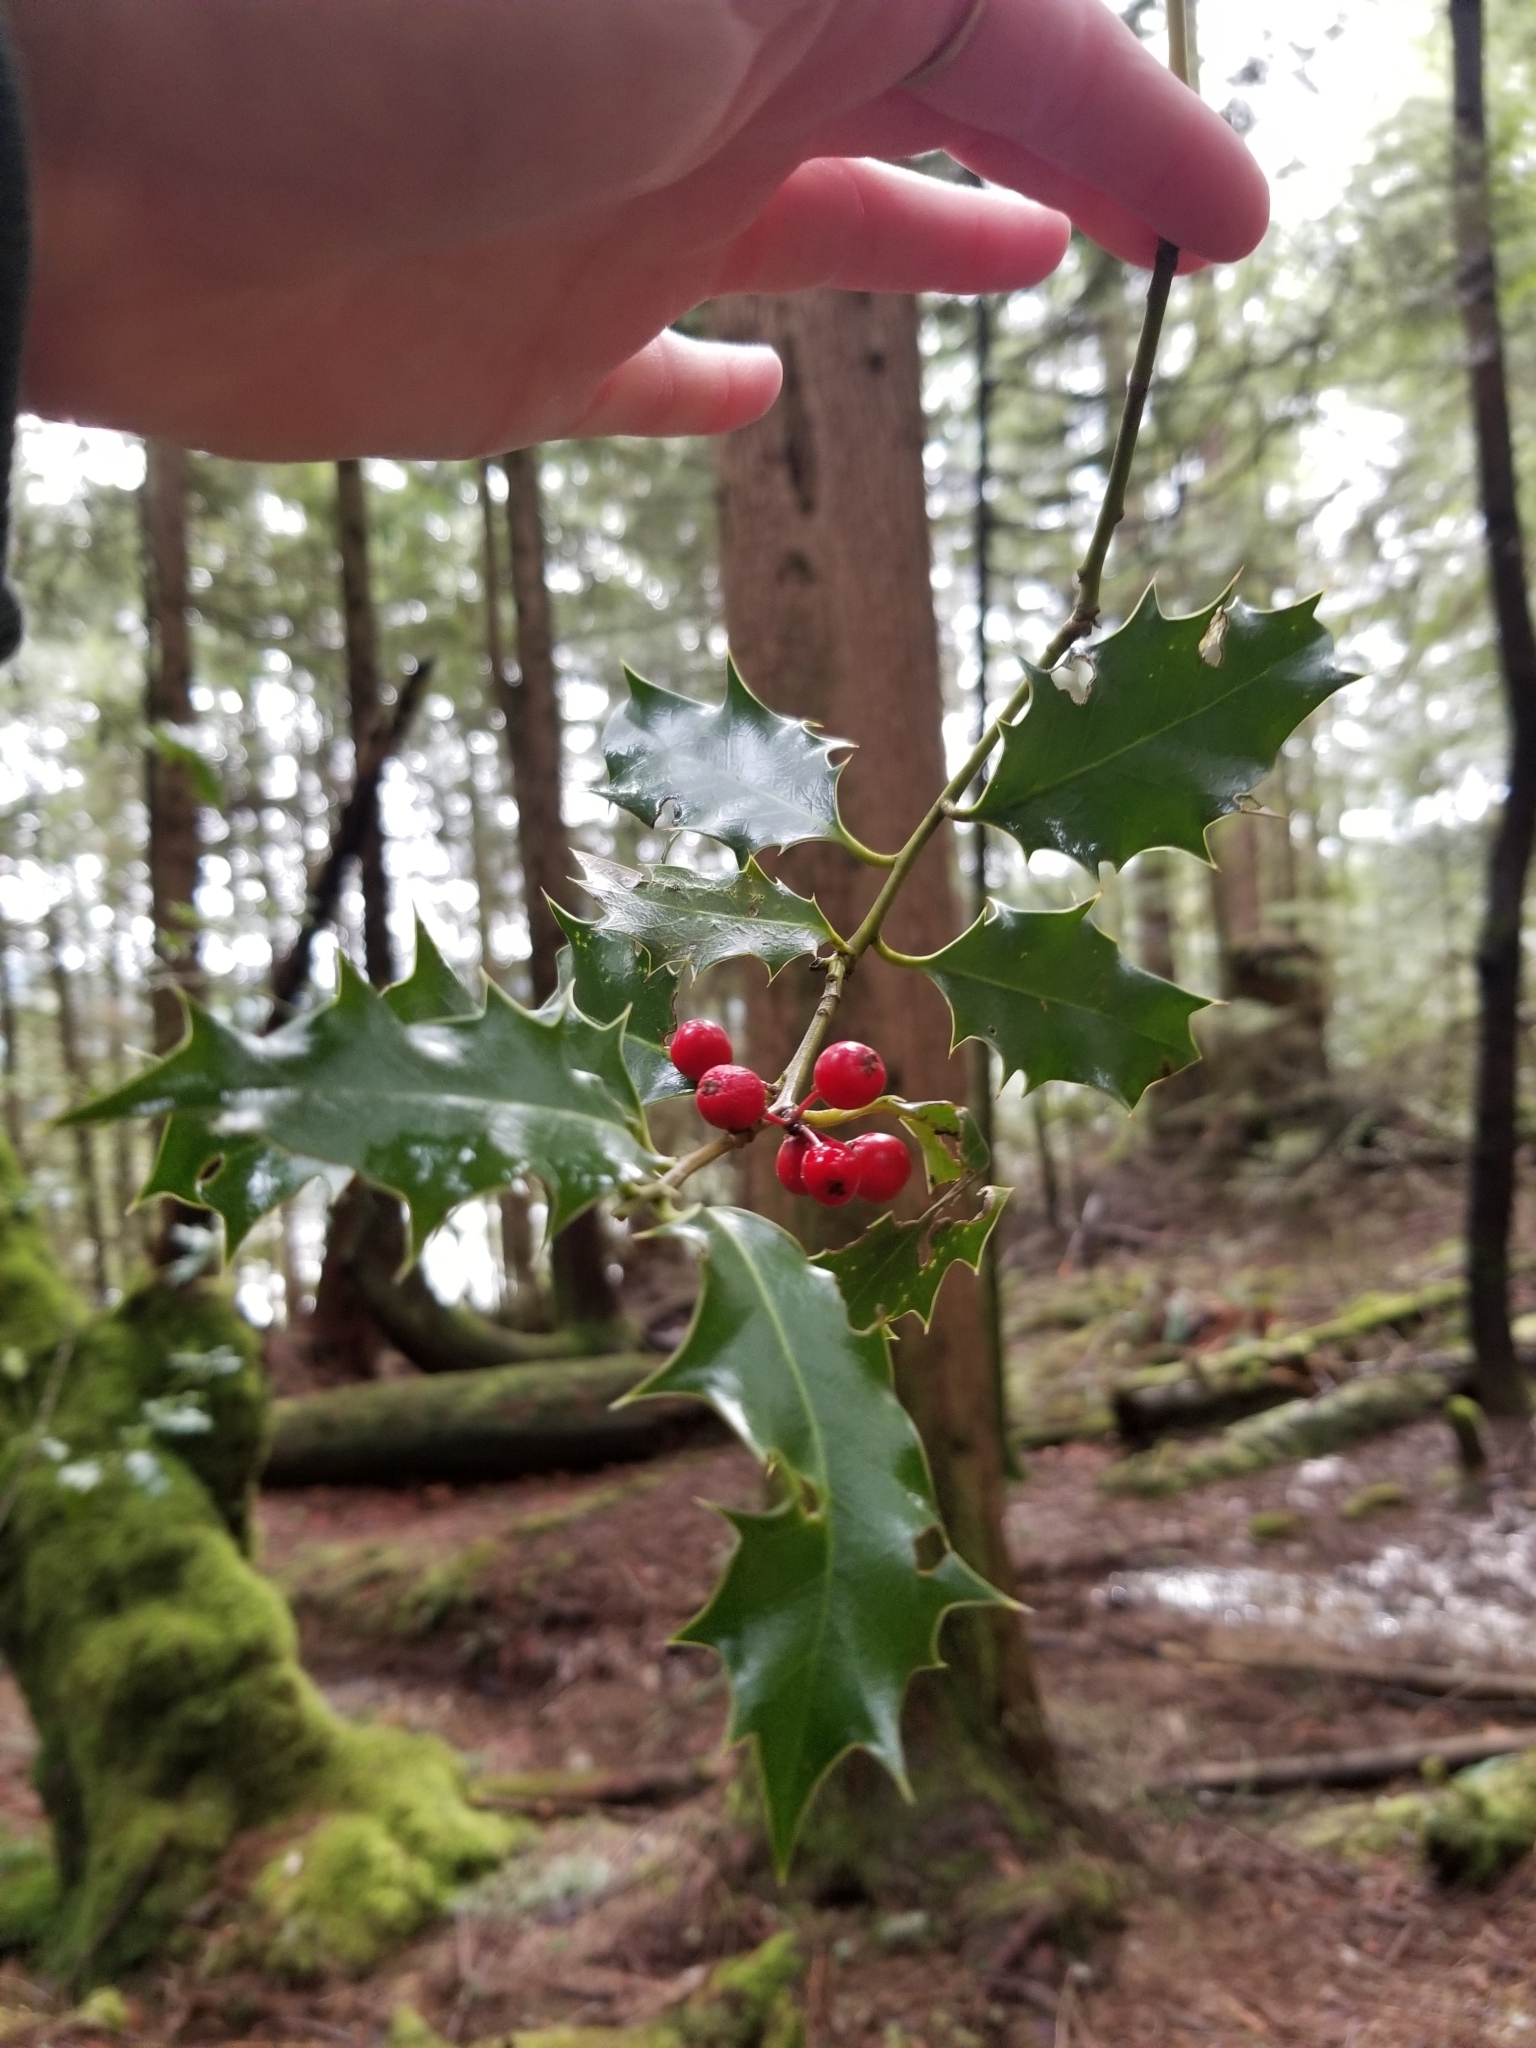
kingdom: Plantae
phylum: Tracheophyta
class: Magnoliopsida
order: Aquifoliales
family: Aquifoliaceae
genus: Ilex
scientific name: Ilex aquifolium
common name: English holly
